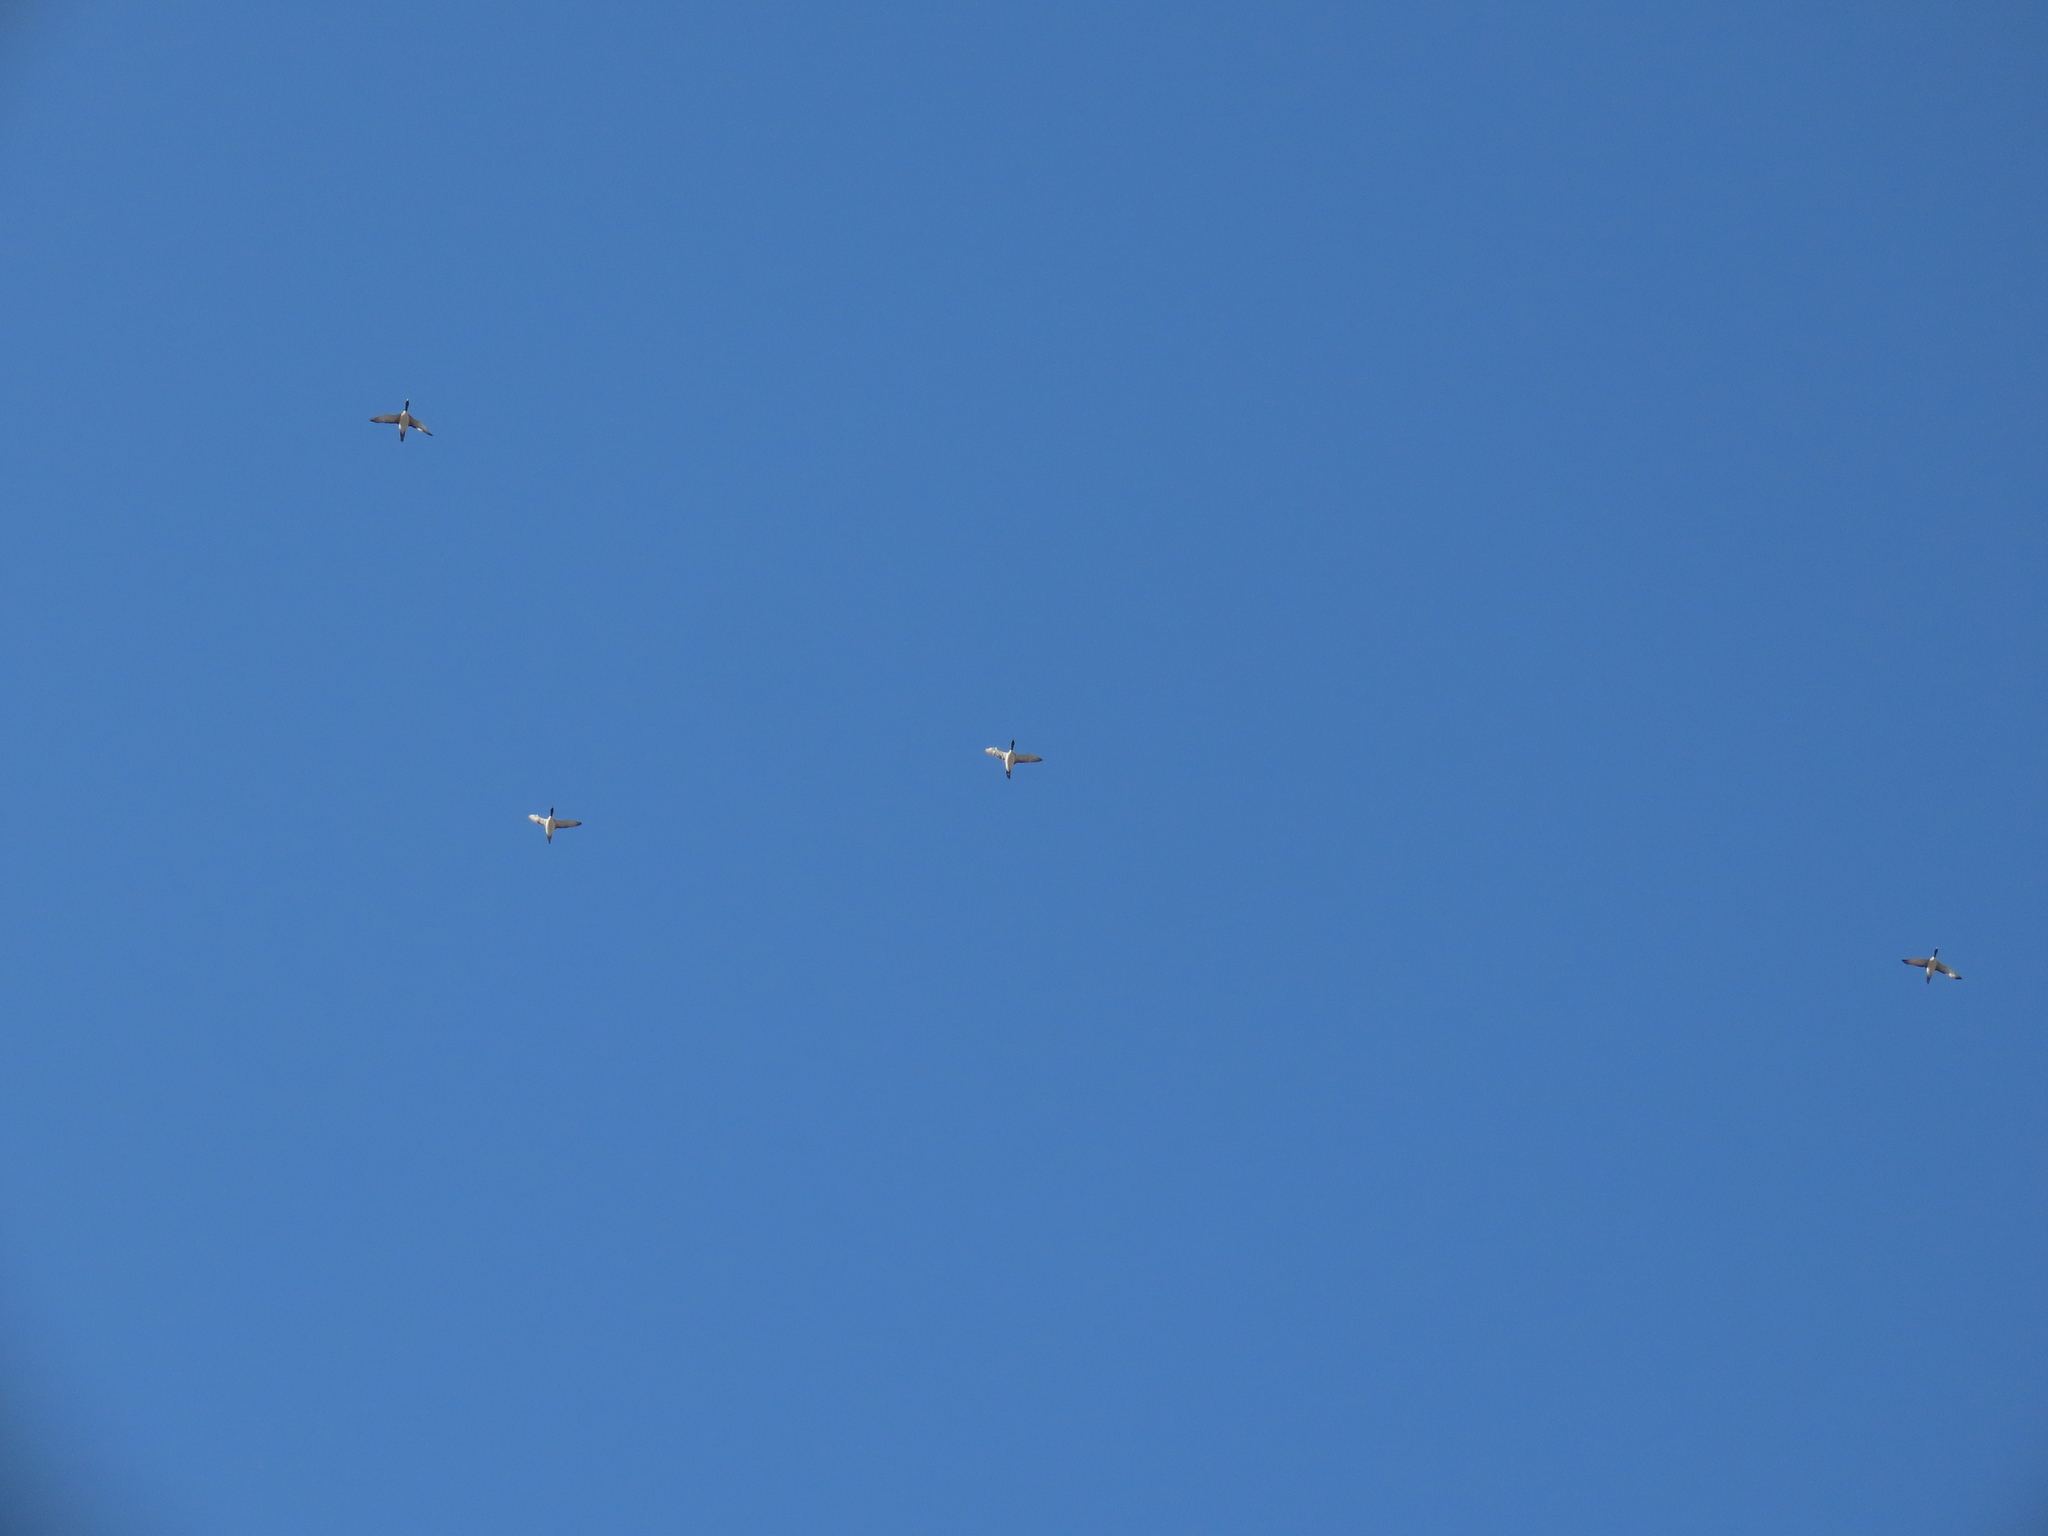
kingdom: Animalia
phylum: Chordata
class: Aves
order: Gaviiformes
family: Gaviidae
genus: Gavia
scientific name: Gavia immer
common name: Common loon
